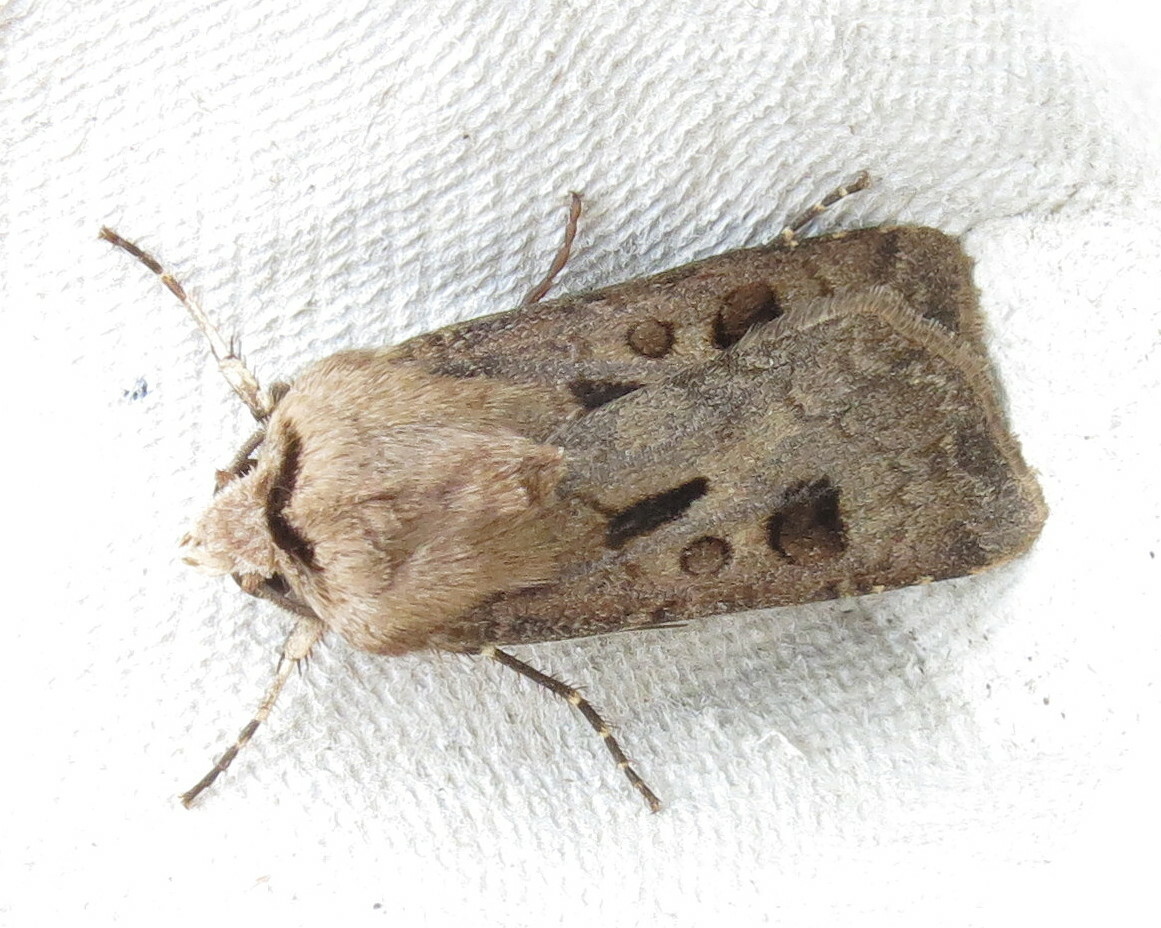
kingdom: Animalia
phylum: Arthropoda
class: Insecta
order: Lepidoptera
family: Noctuidae
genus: Agrotis
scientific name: Agrotis exclamationis
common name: Heart and dart
